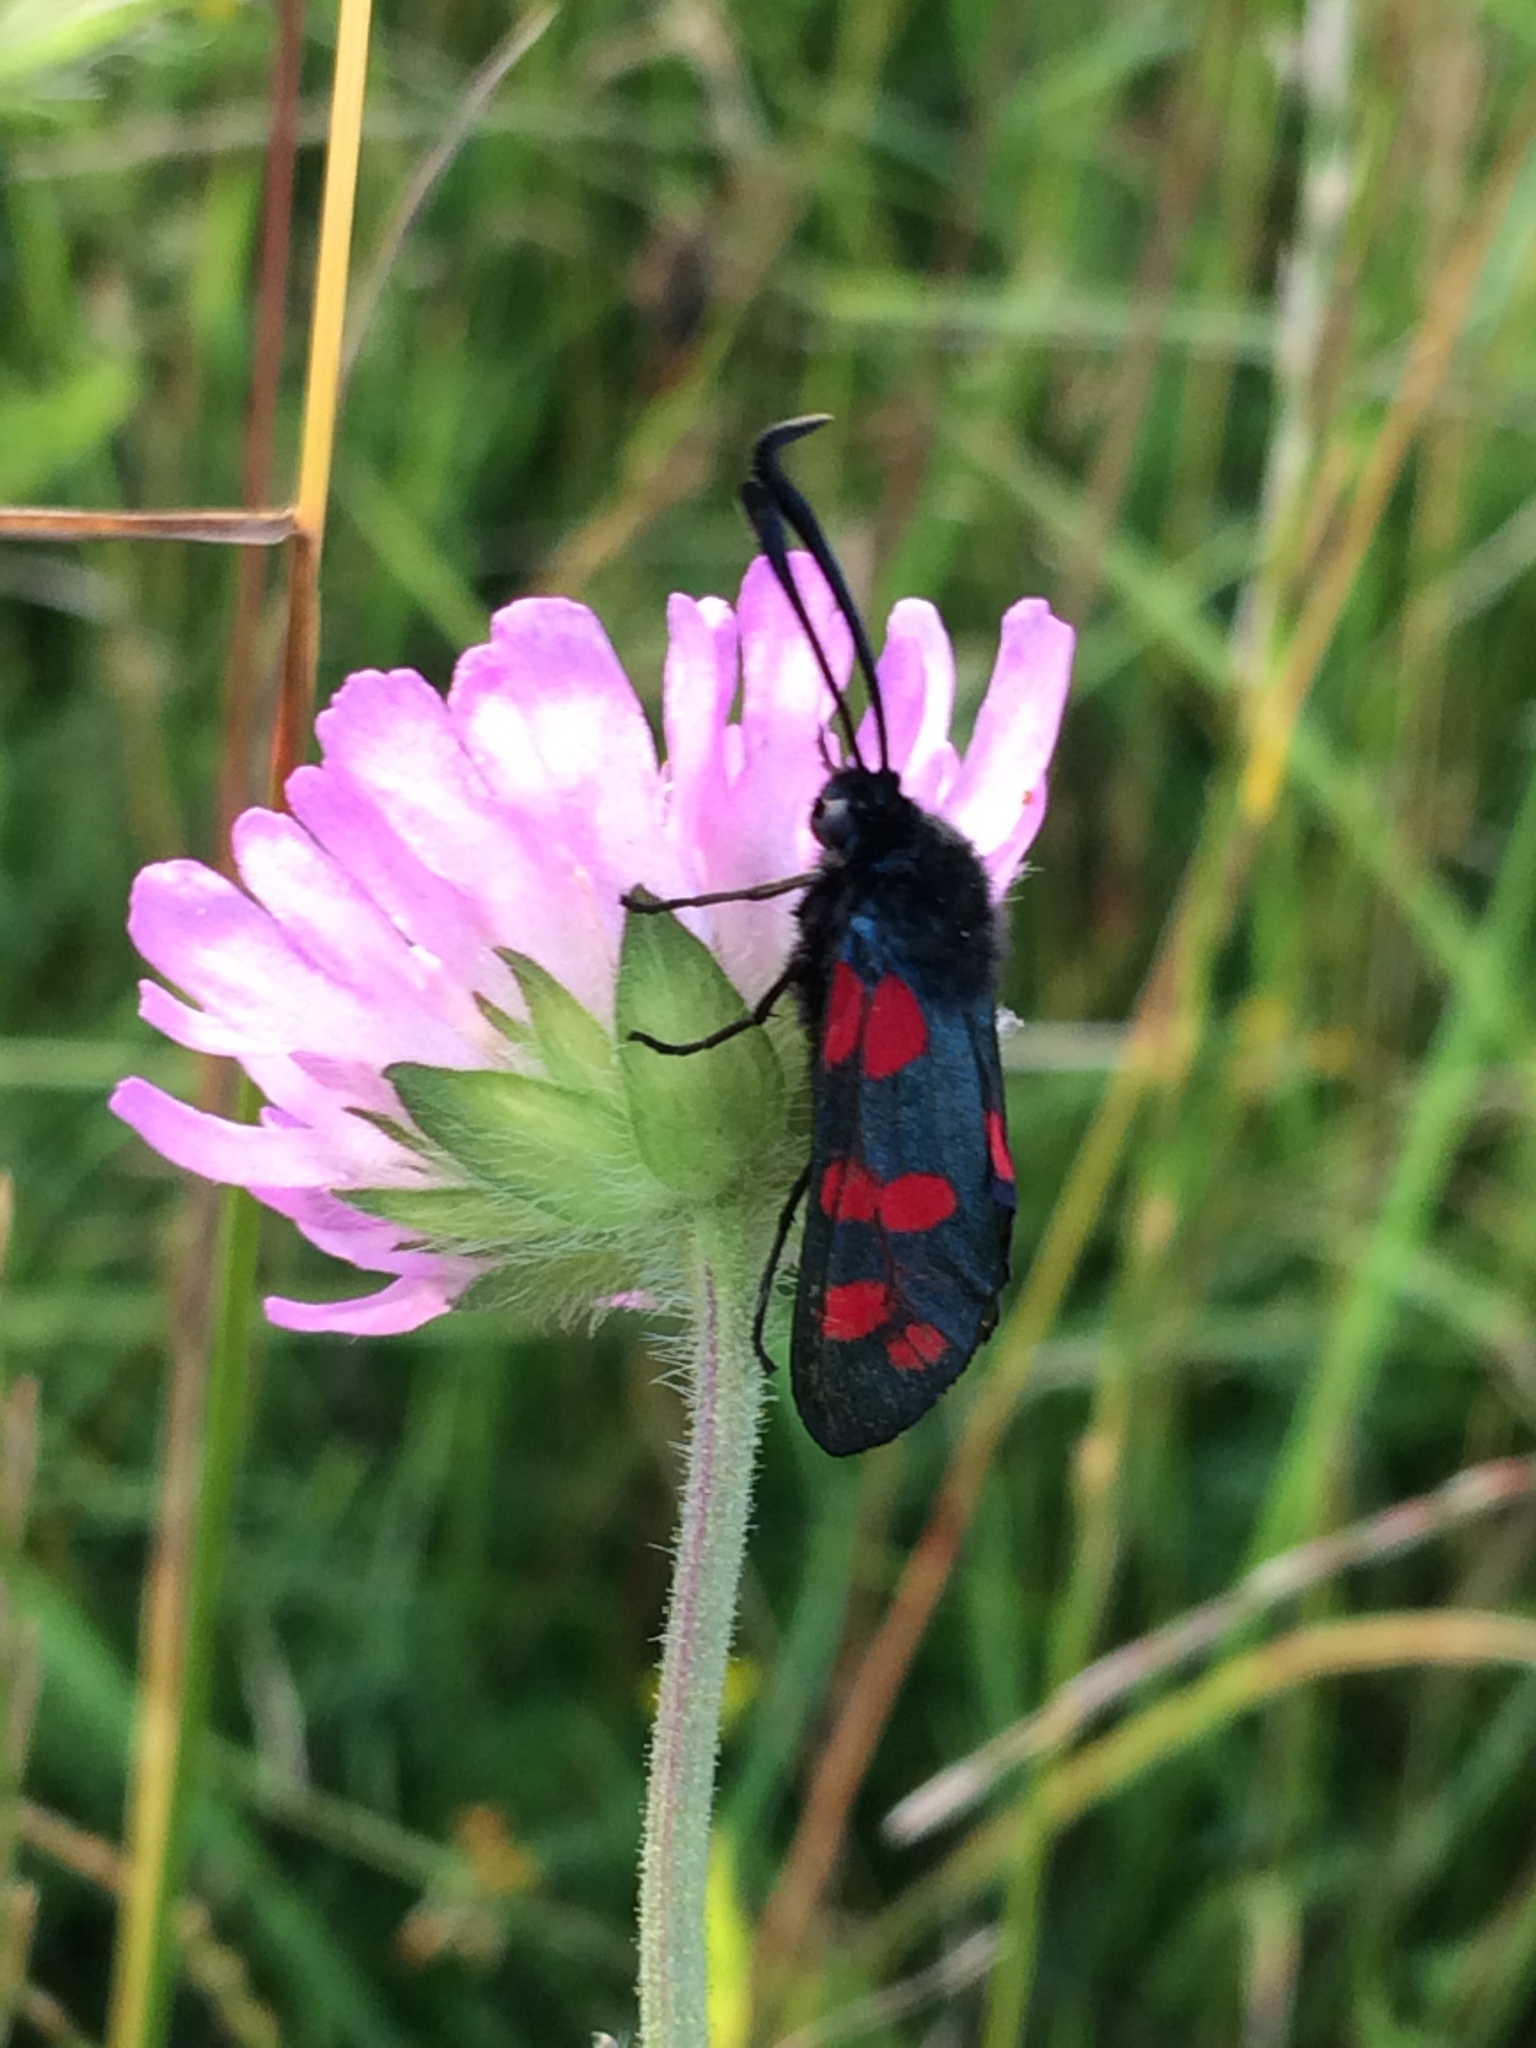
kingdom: Animalia
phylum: Arthropoda
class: Insecta
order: Lepidoptera
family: Zygaenidae
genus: Zygaena
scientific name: Zygaena filipendulae
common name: Six-spot burnet
